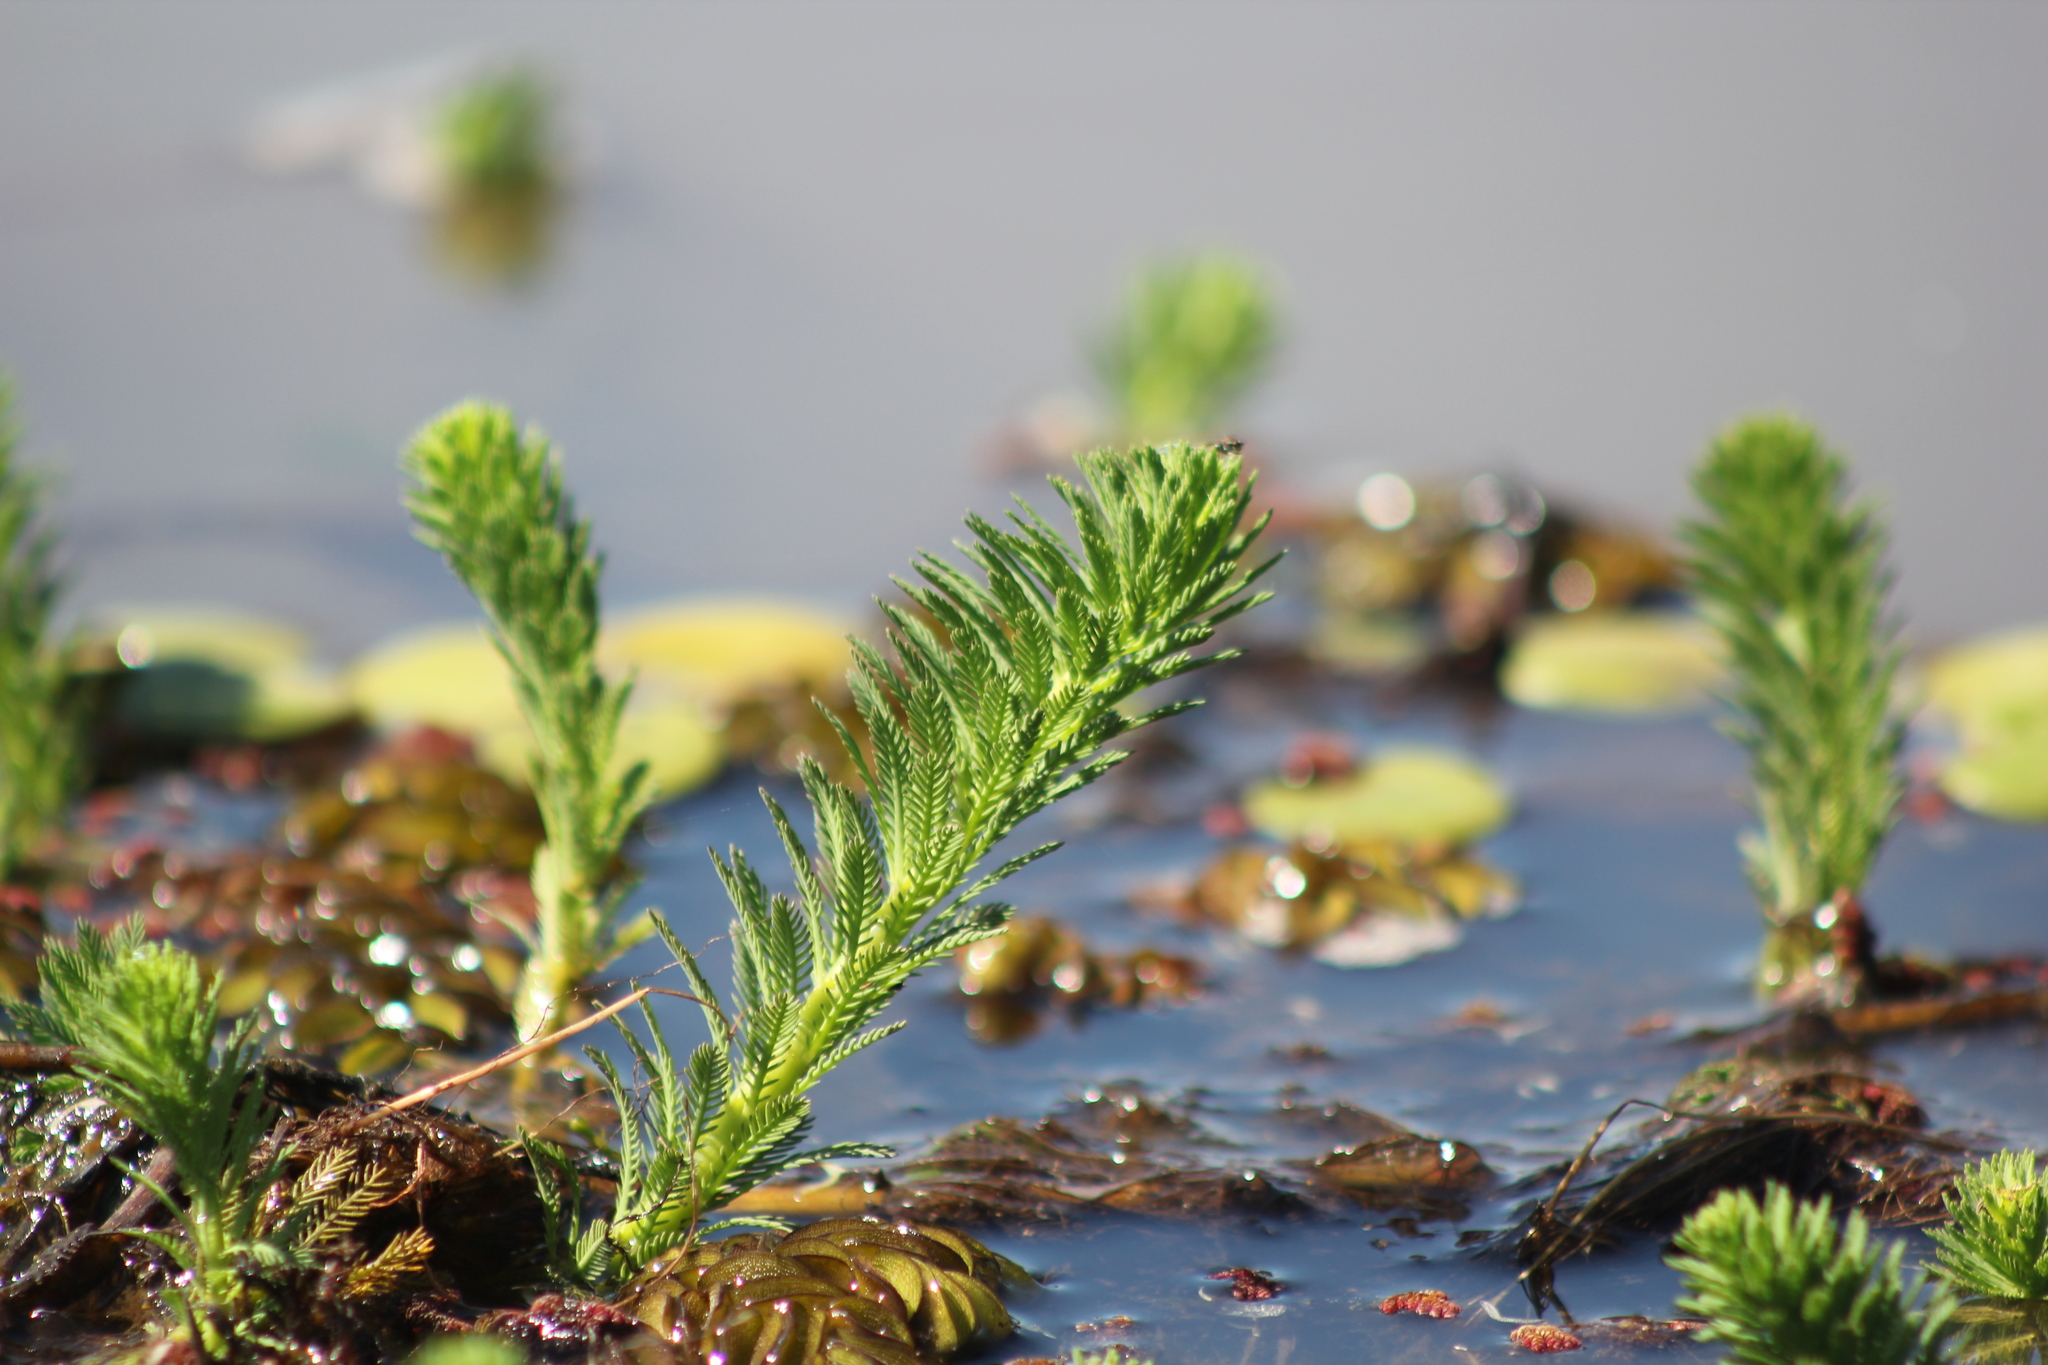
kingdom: Plantae
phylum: Tracheophyta
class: Magnoliopsida
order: Saxifragales
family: Haloragaceae
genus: Myriophyllum
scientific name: Myriophyllum aquaticum
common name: Parrot's feather
